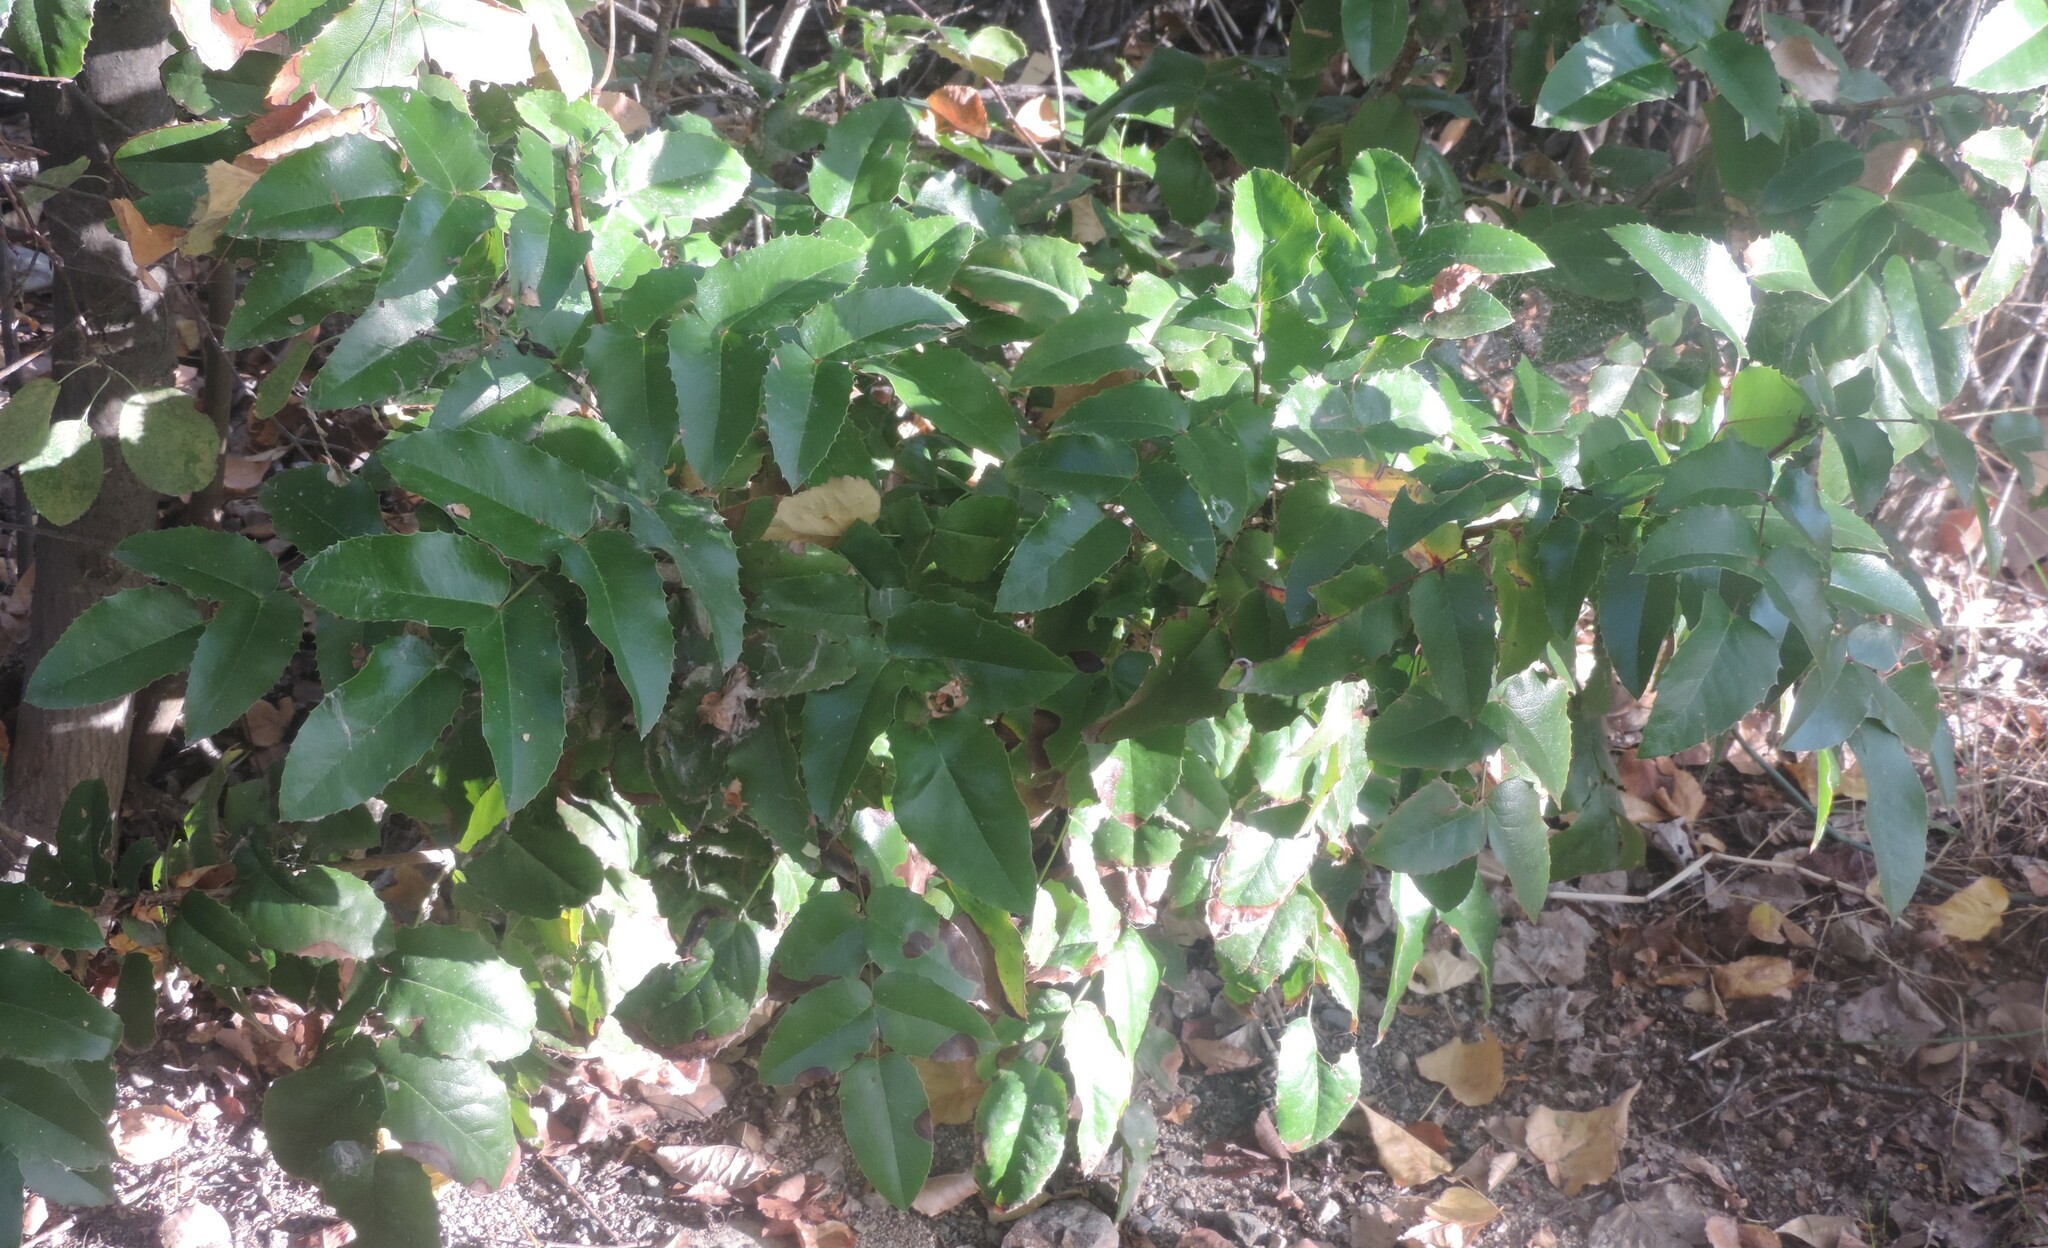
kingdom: Plantae
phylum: Tracheophyta
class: Magnoliopsida
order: Ranunculales
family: Berberidaceae
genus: Mahonia
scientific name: Mahonia aquifolium
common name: Oregon-grape
